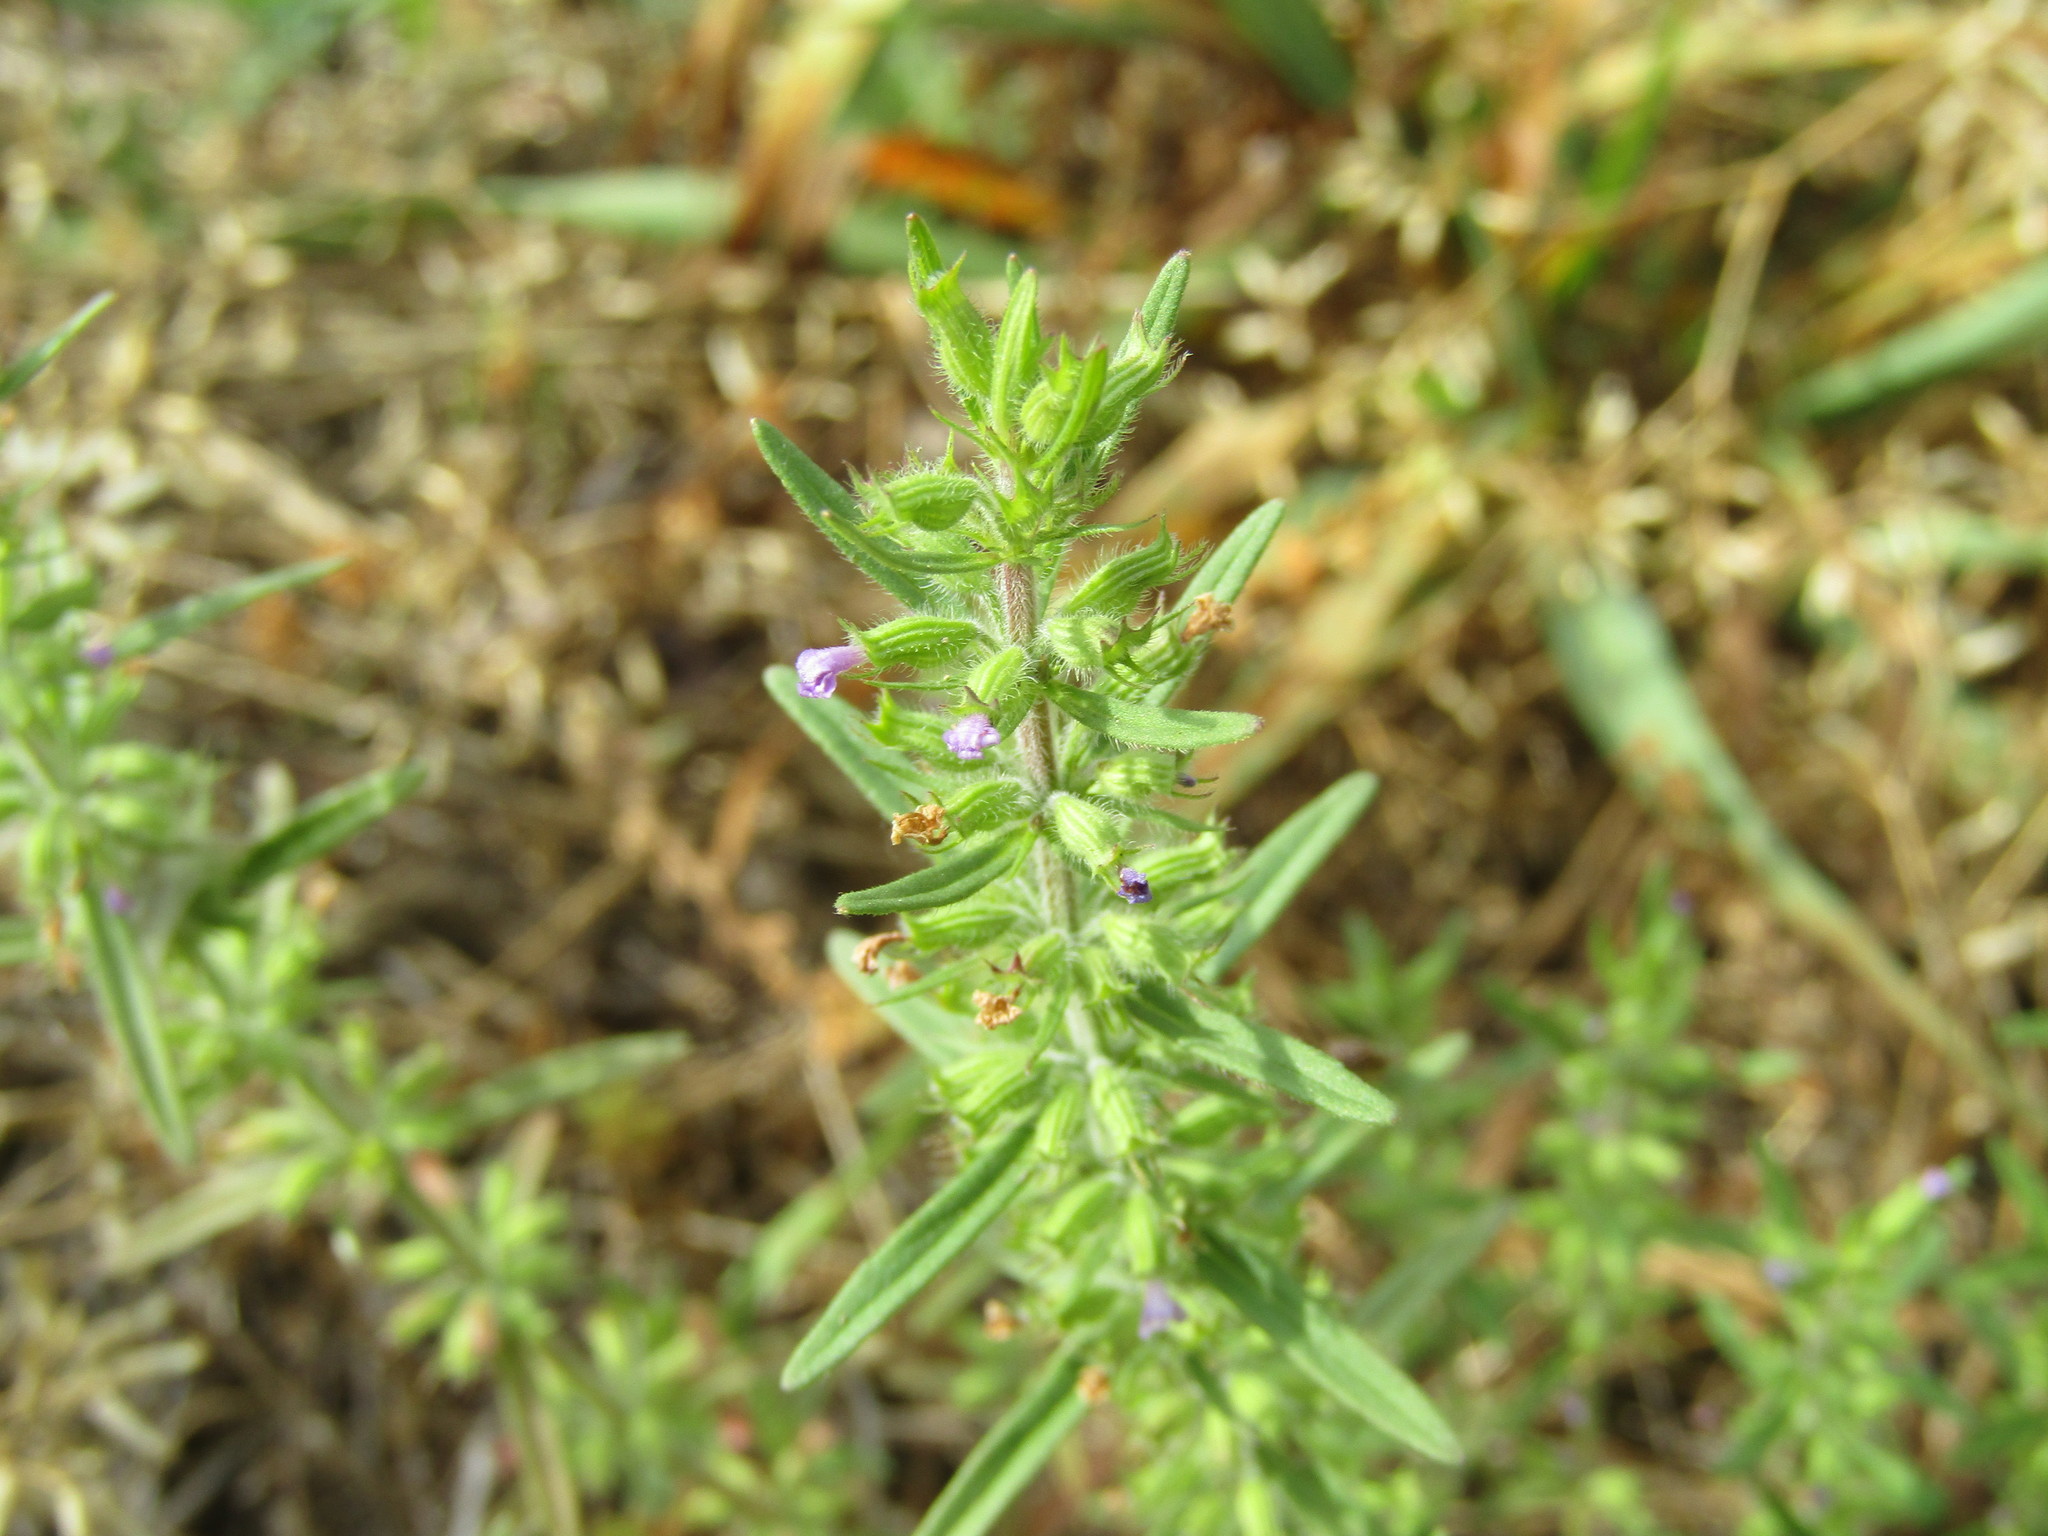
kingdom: Plantae
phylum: Tracheophyta
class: Magnoliopsida
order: Lamiales
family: Lamiaceae
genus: Hedeoma
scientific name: Hedeoma hispida
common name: Mock pennyroyal
